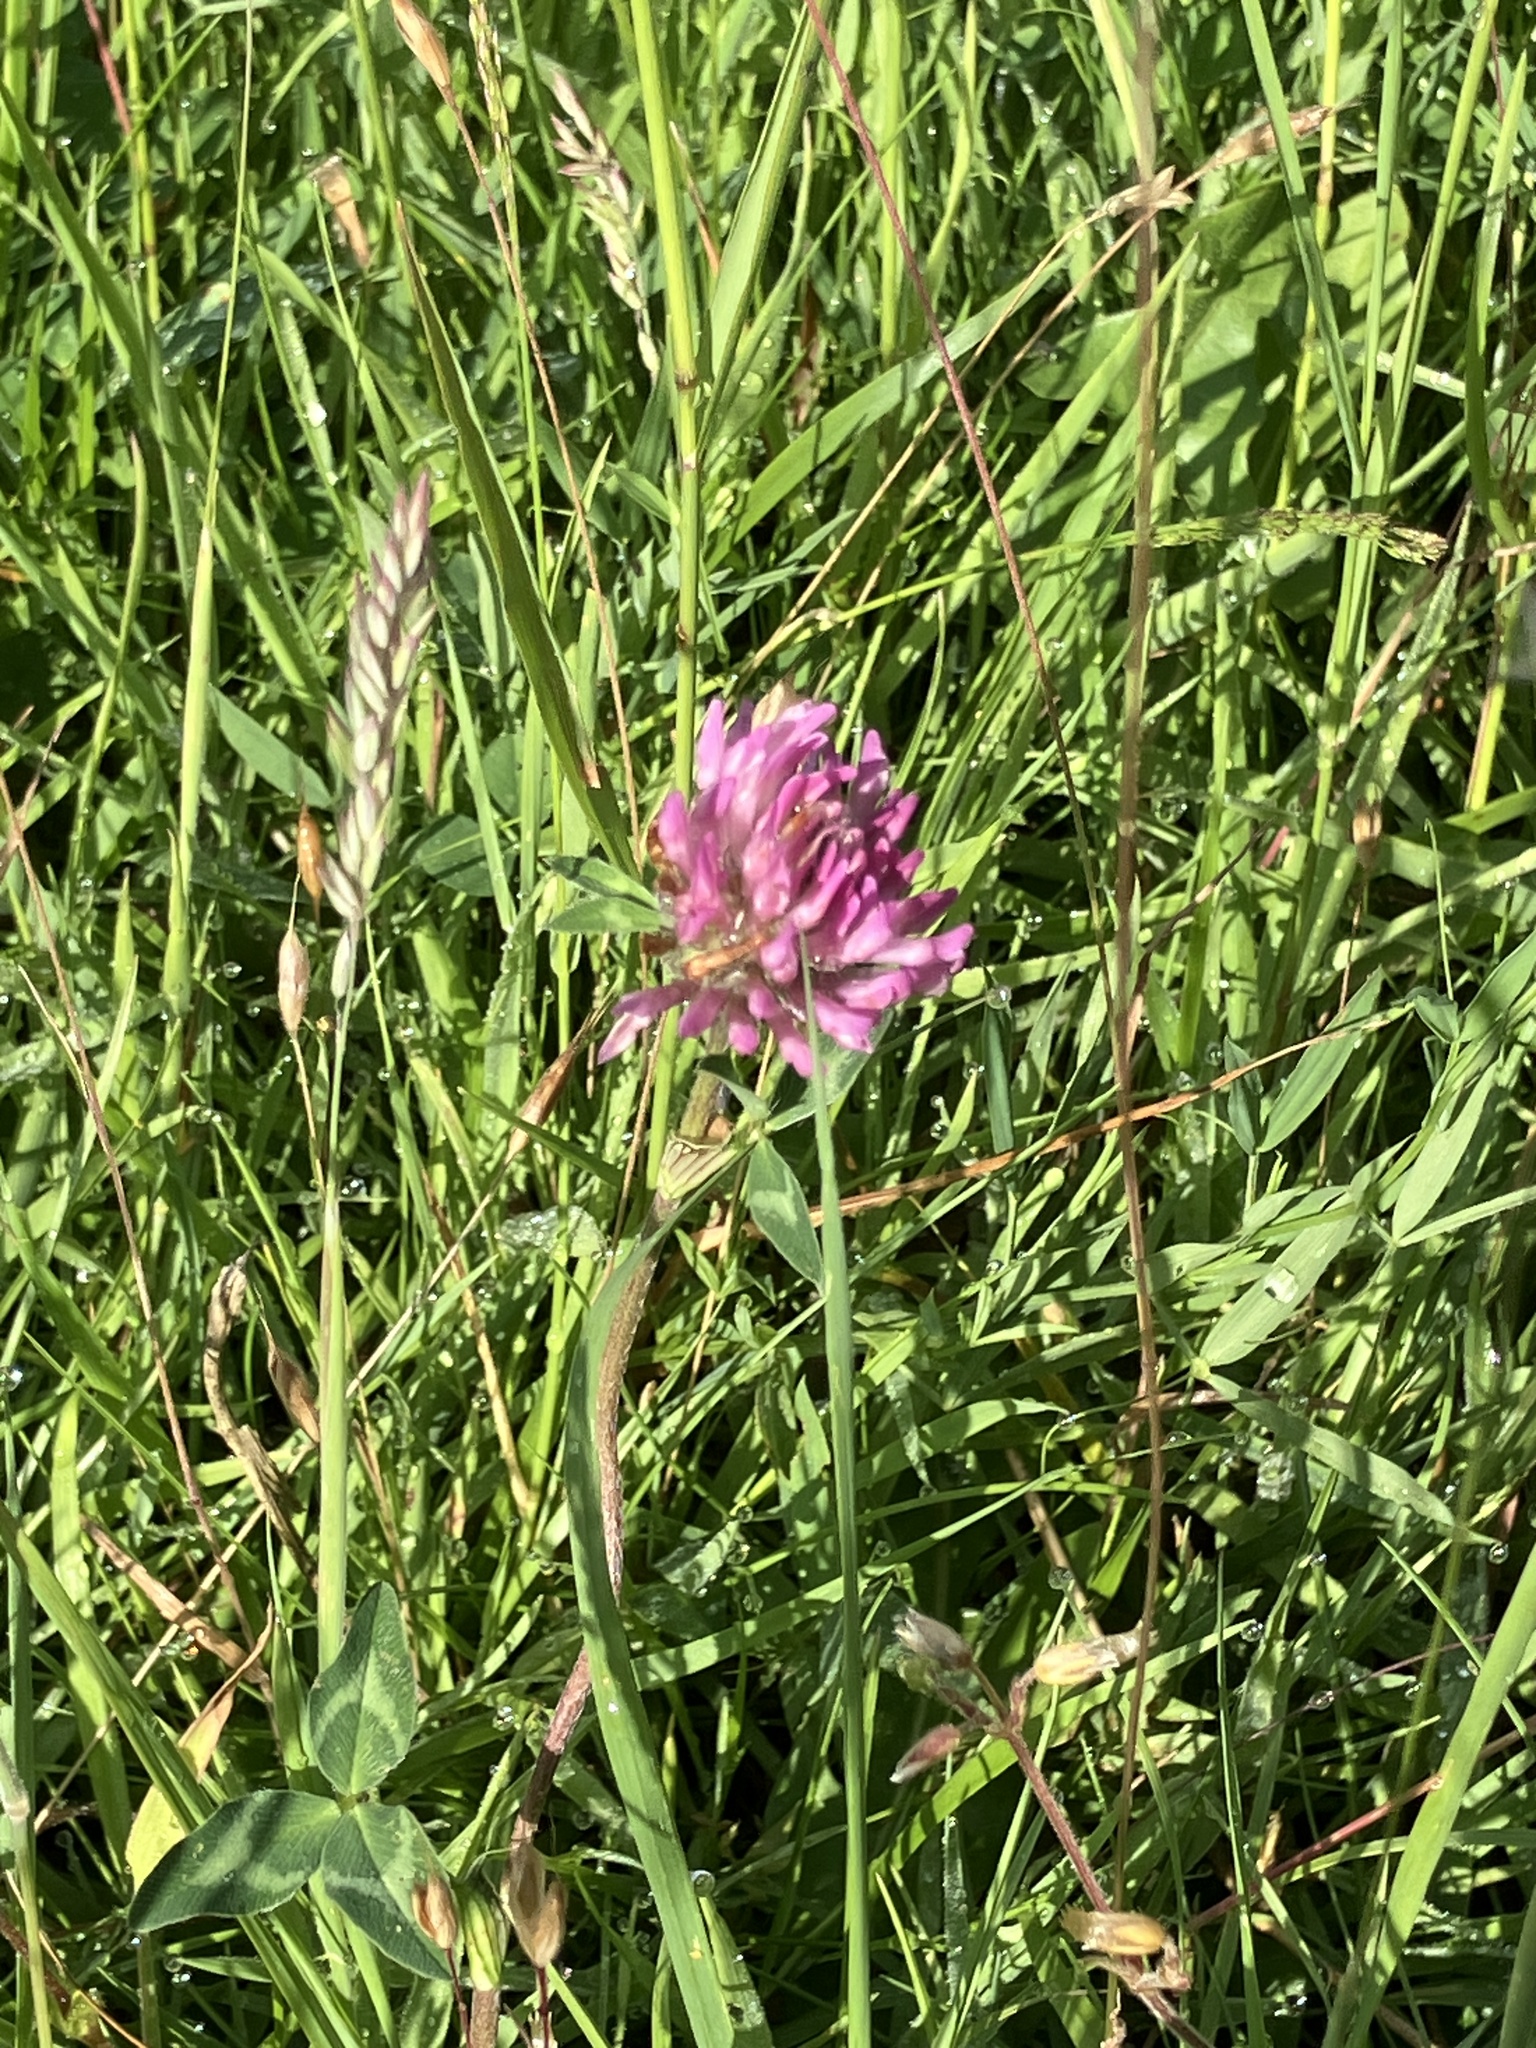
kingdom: Plantae
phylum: Tracheophyta
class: Magnoliopsida
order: Fabales
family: Fabaceae
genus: Trifolium
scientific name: Trifolium pratense
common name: Red clover
